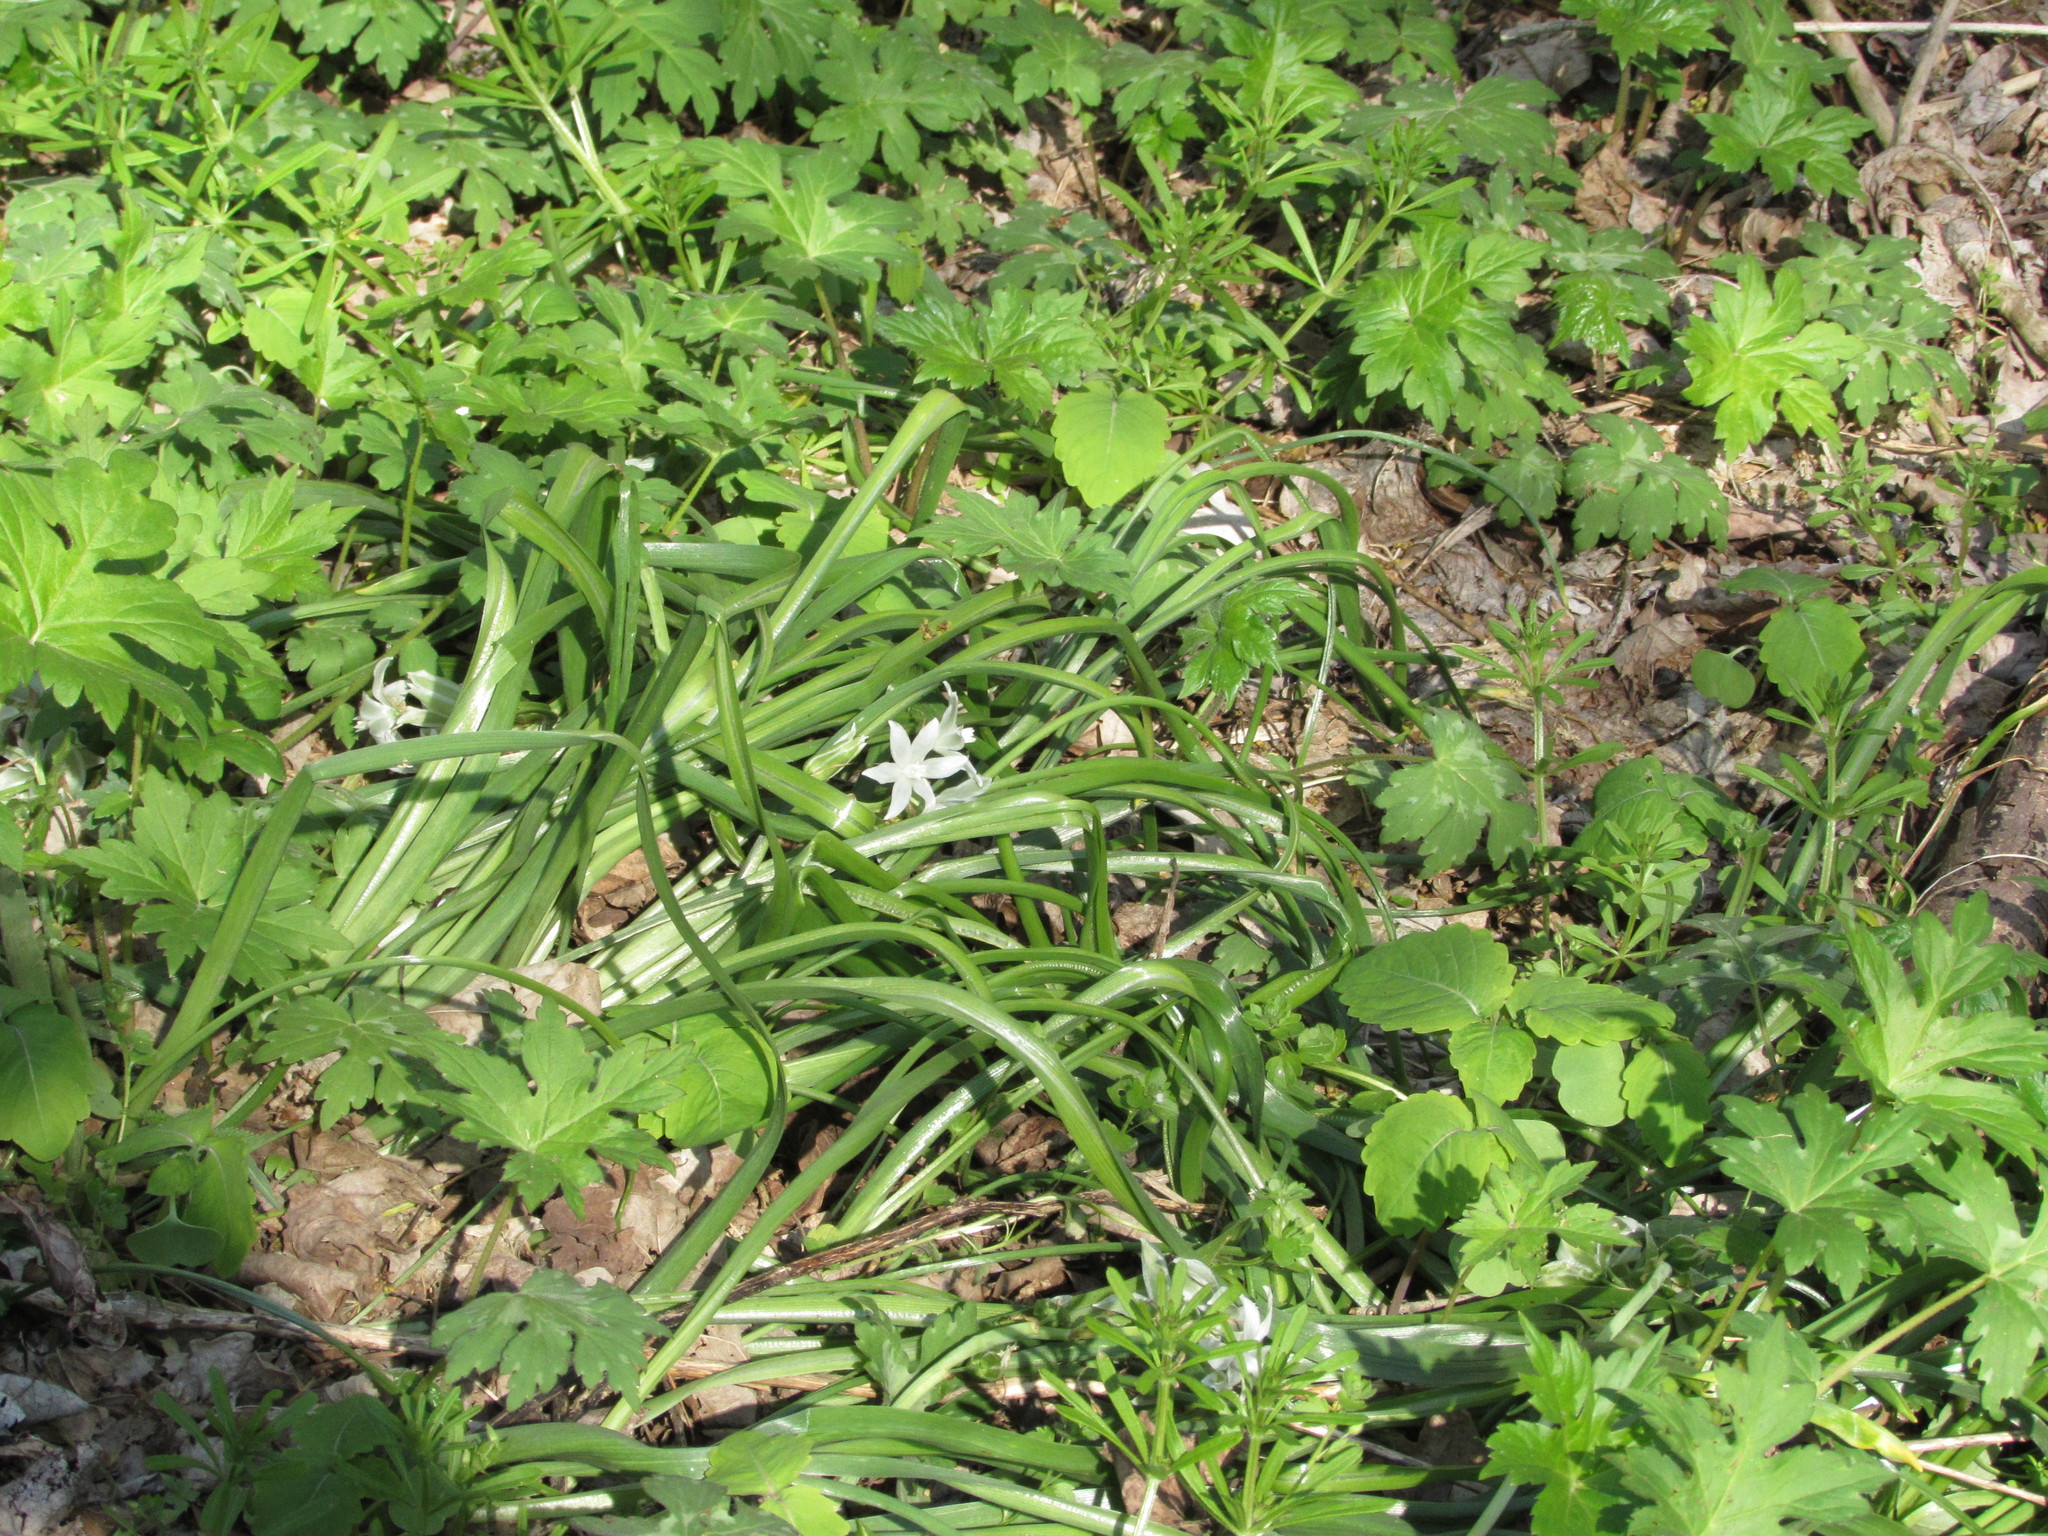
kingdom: Plantae
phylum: Tracheophyta
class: Liliopsida
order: Asparagales
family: Asparagaceae
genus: Ornithogalum
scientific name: Ornithogalum nutans
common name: Drooping star-of-bethlehem
